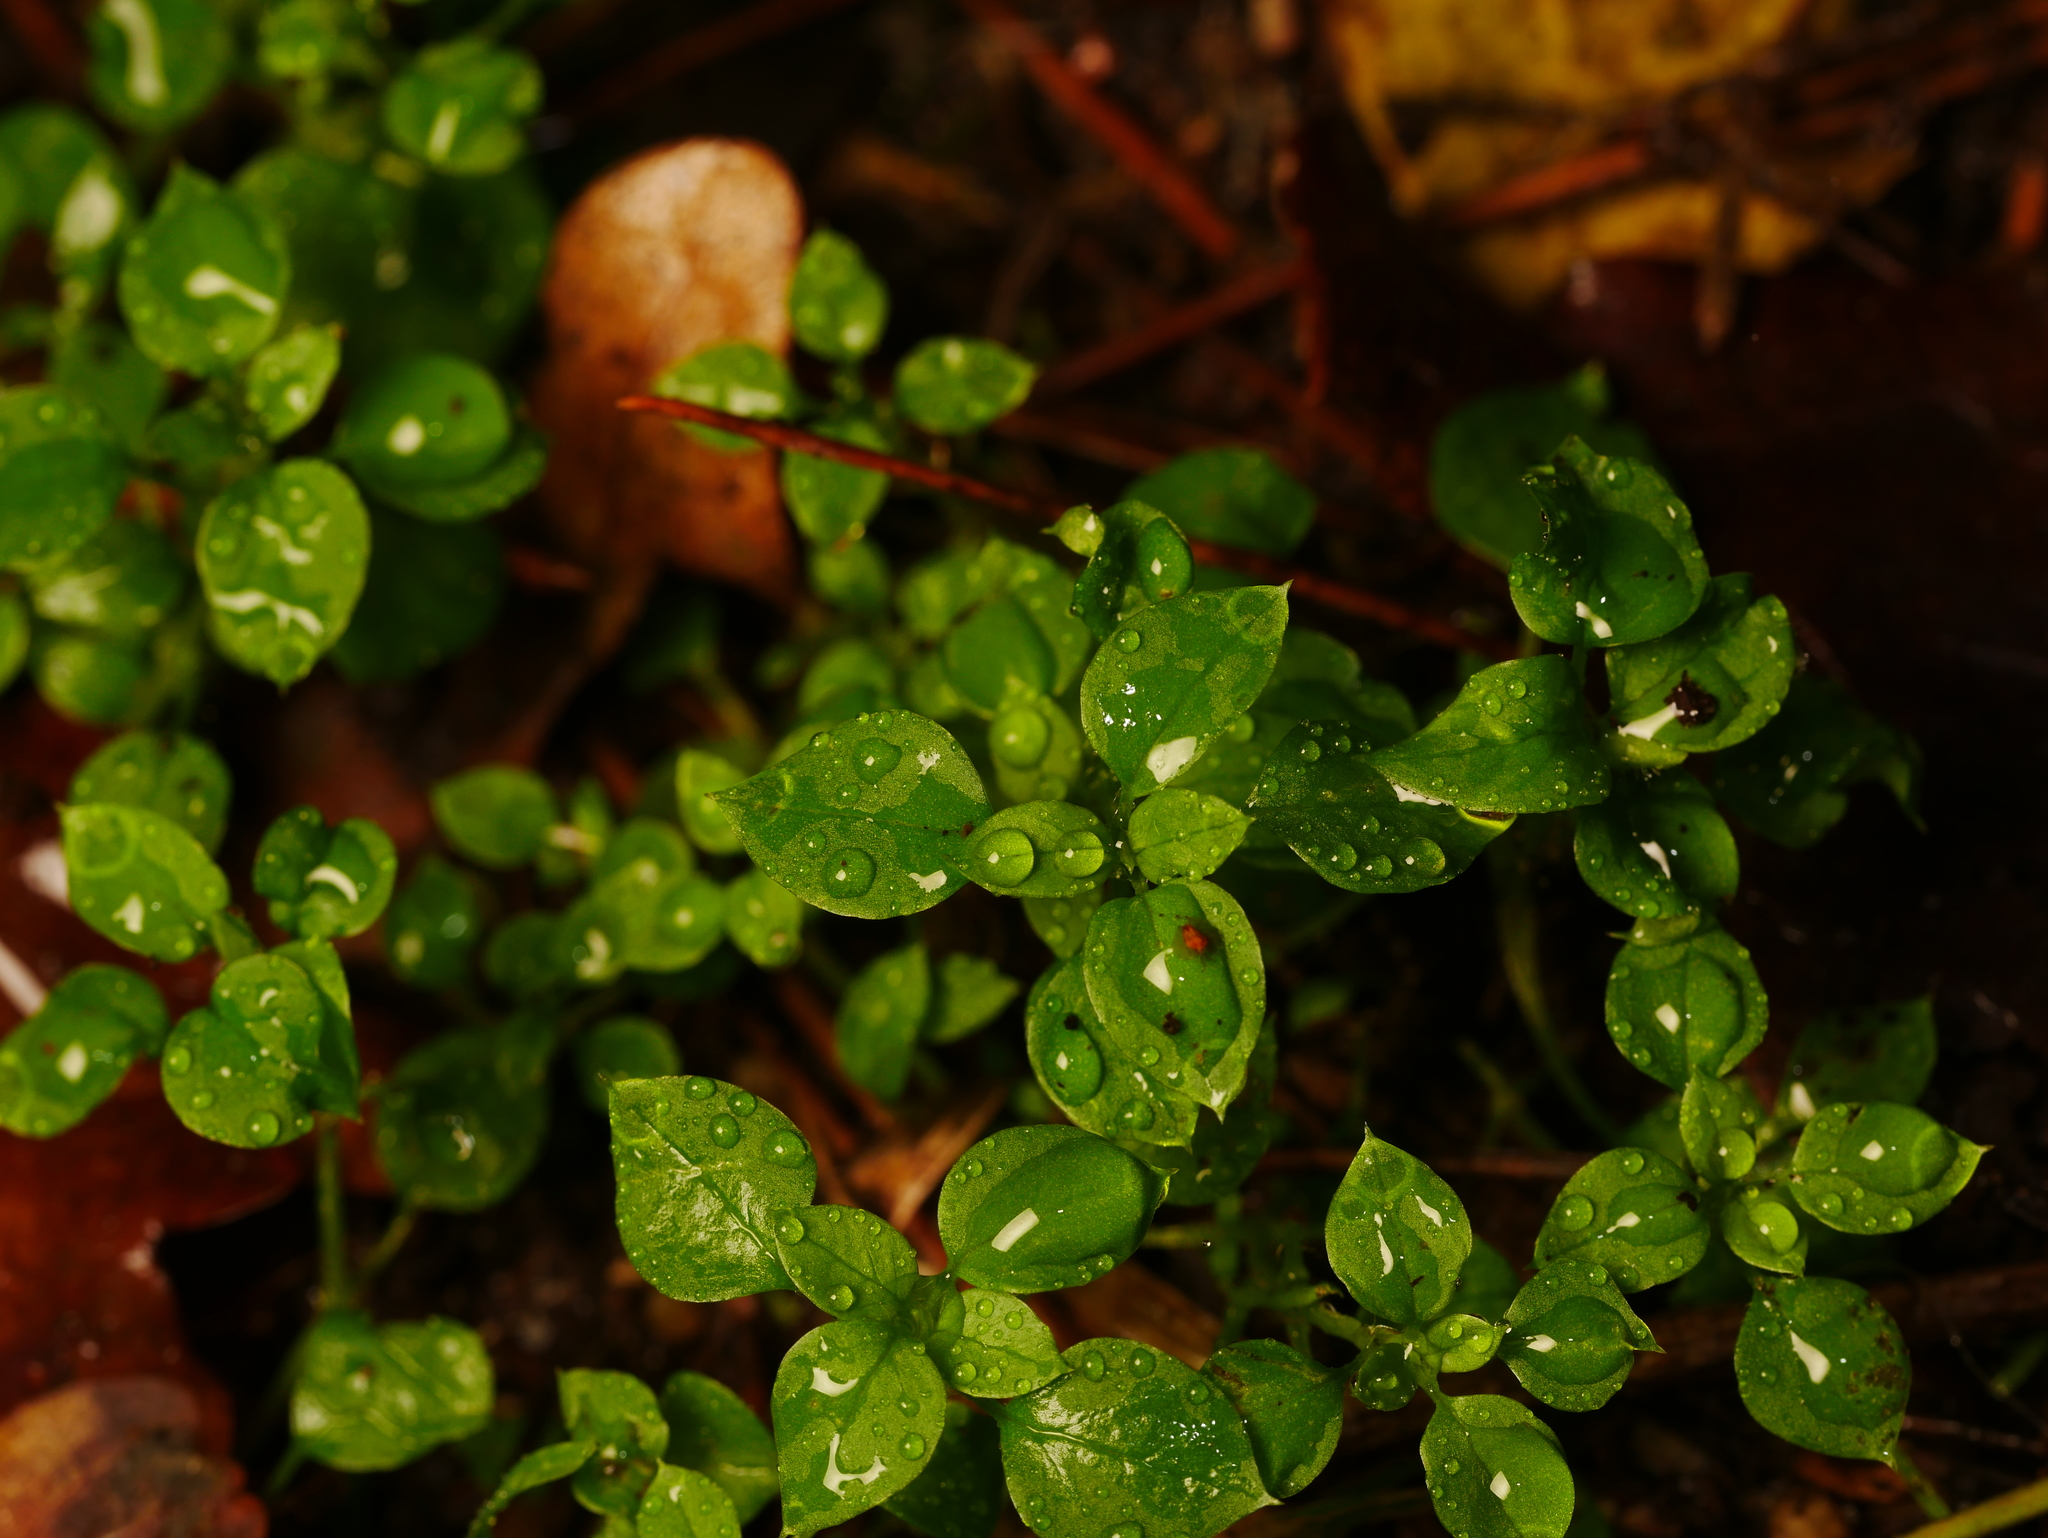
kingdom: Plantae
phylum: Tracheophyta
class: Magnoliopsida
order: Caryophyllales
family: Caryophyllaceae
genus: Stellaria
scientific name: Stellaria media
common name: Common chickweed
